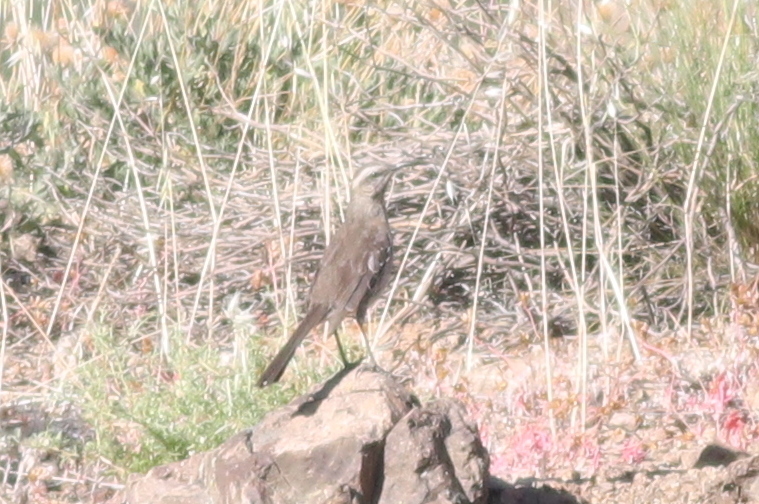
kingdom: Animalia
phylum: Chordata
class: Aves
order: Passeriformes
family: Mimidae
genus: Mimus
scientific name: Mimus thenca
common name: Chilean mockingbird
